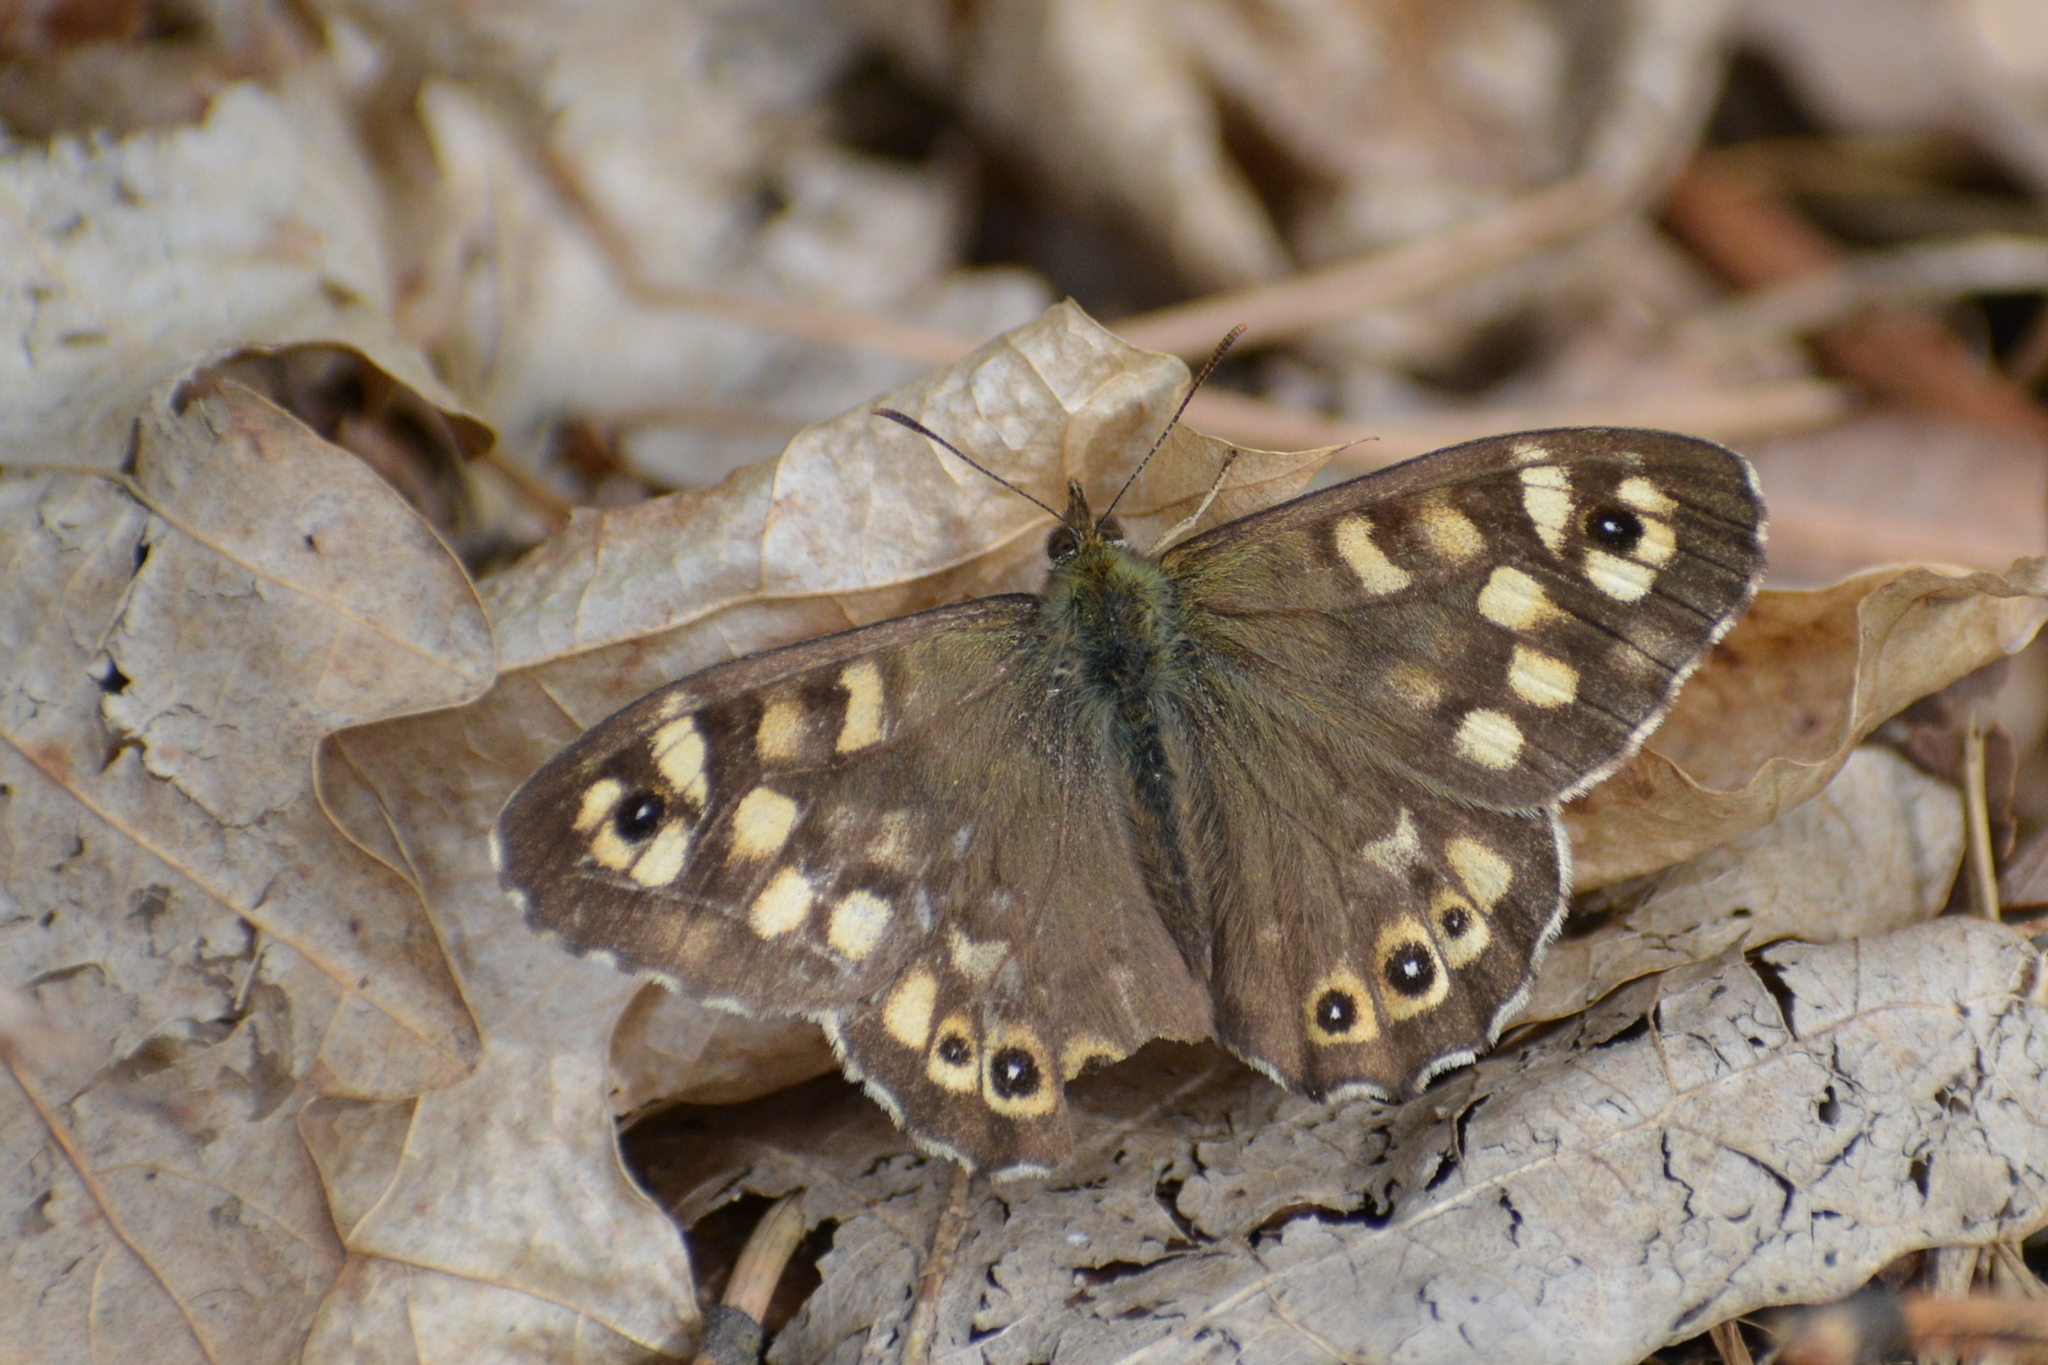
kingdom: Animalia
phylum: Arthropoda
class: Insecta
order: Lepidoptera
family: Nymphalidae
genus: Pararge
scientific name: Pararge aegeria
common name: Speckled wood
